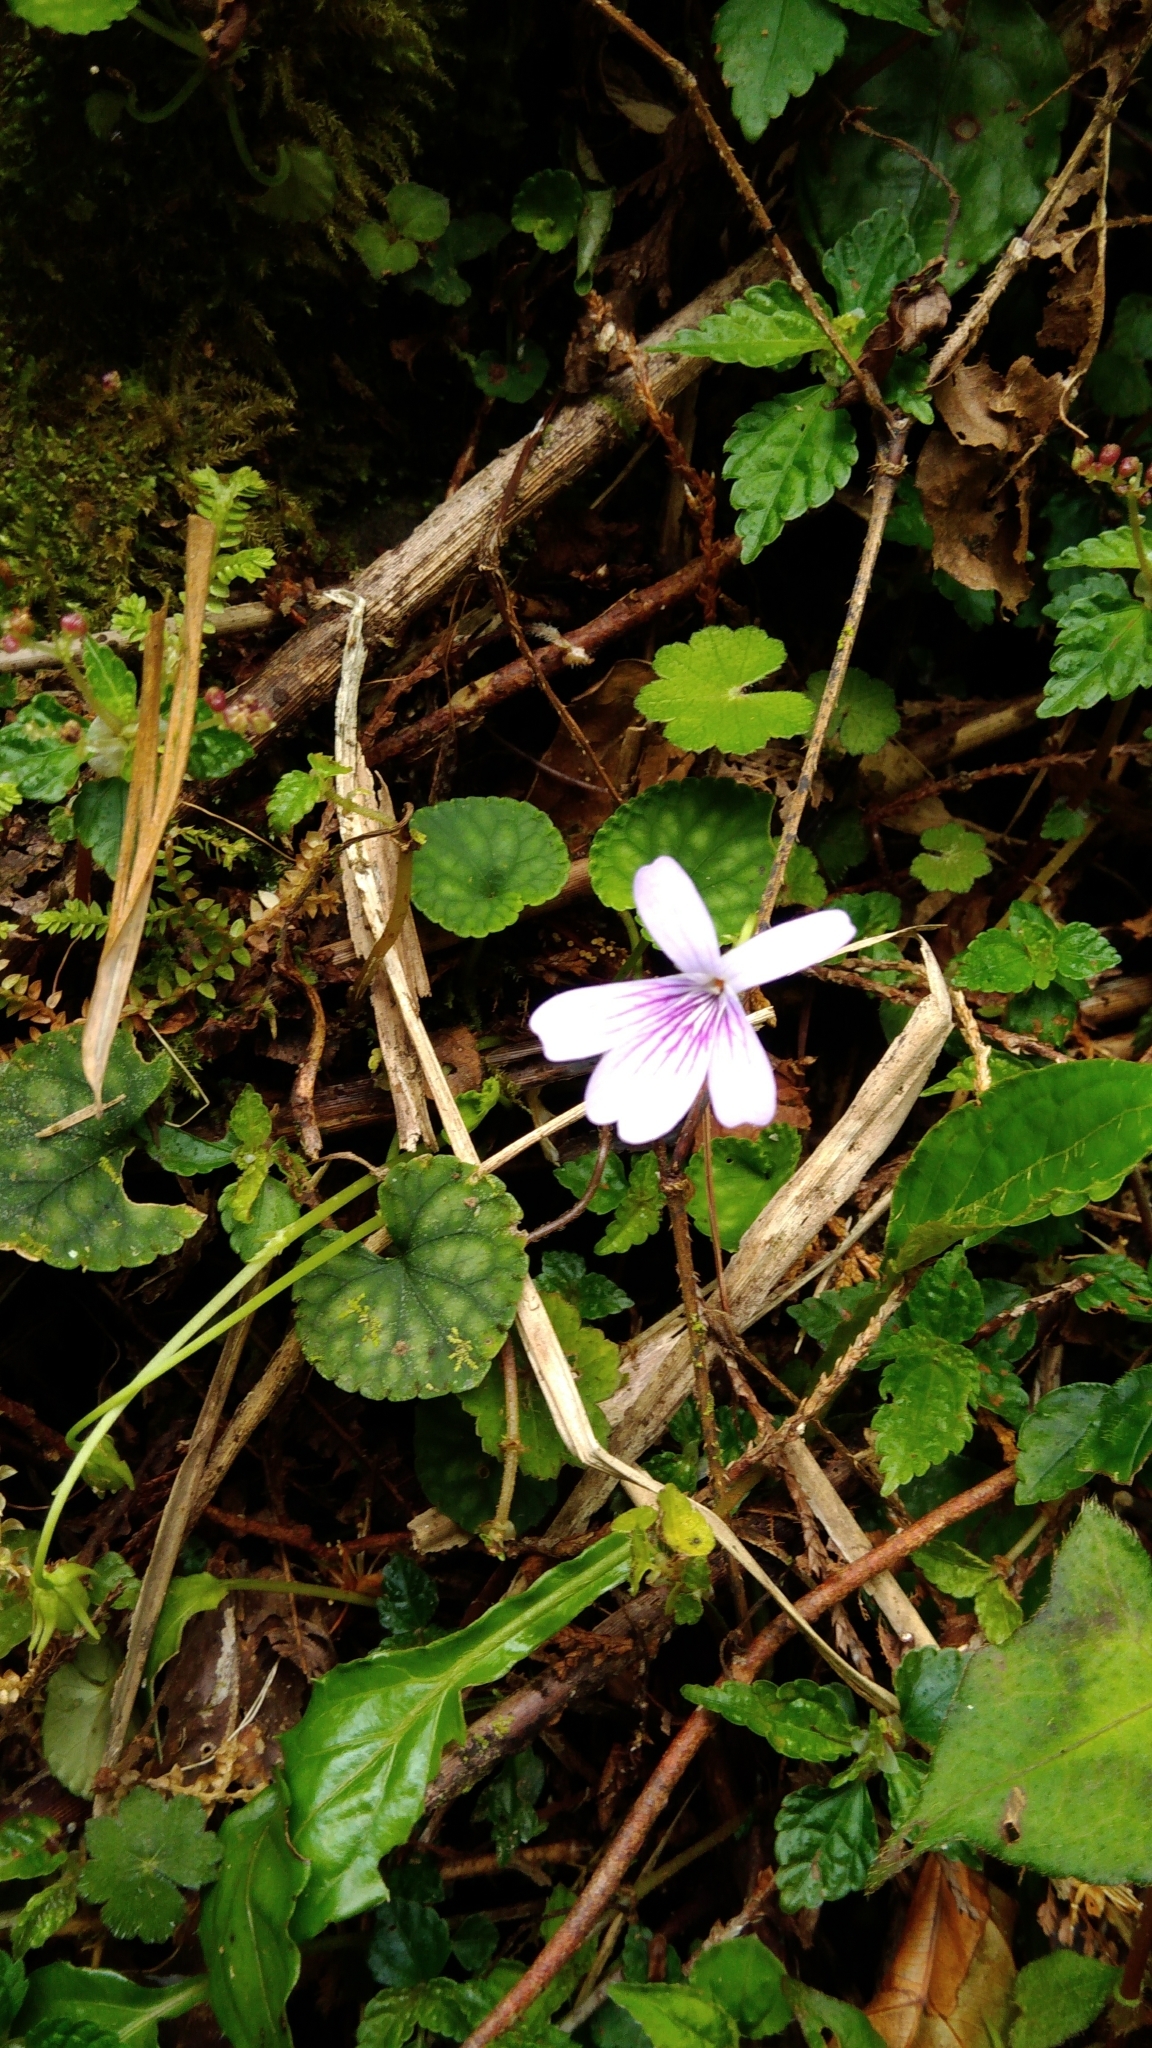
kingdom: Plantae
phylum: Tracheophyta
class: Magnoliopsida
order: Malpighiales
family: Violaceae
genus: Viola
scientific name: Viola formosana
